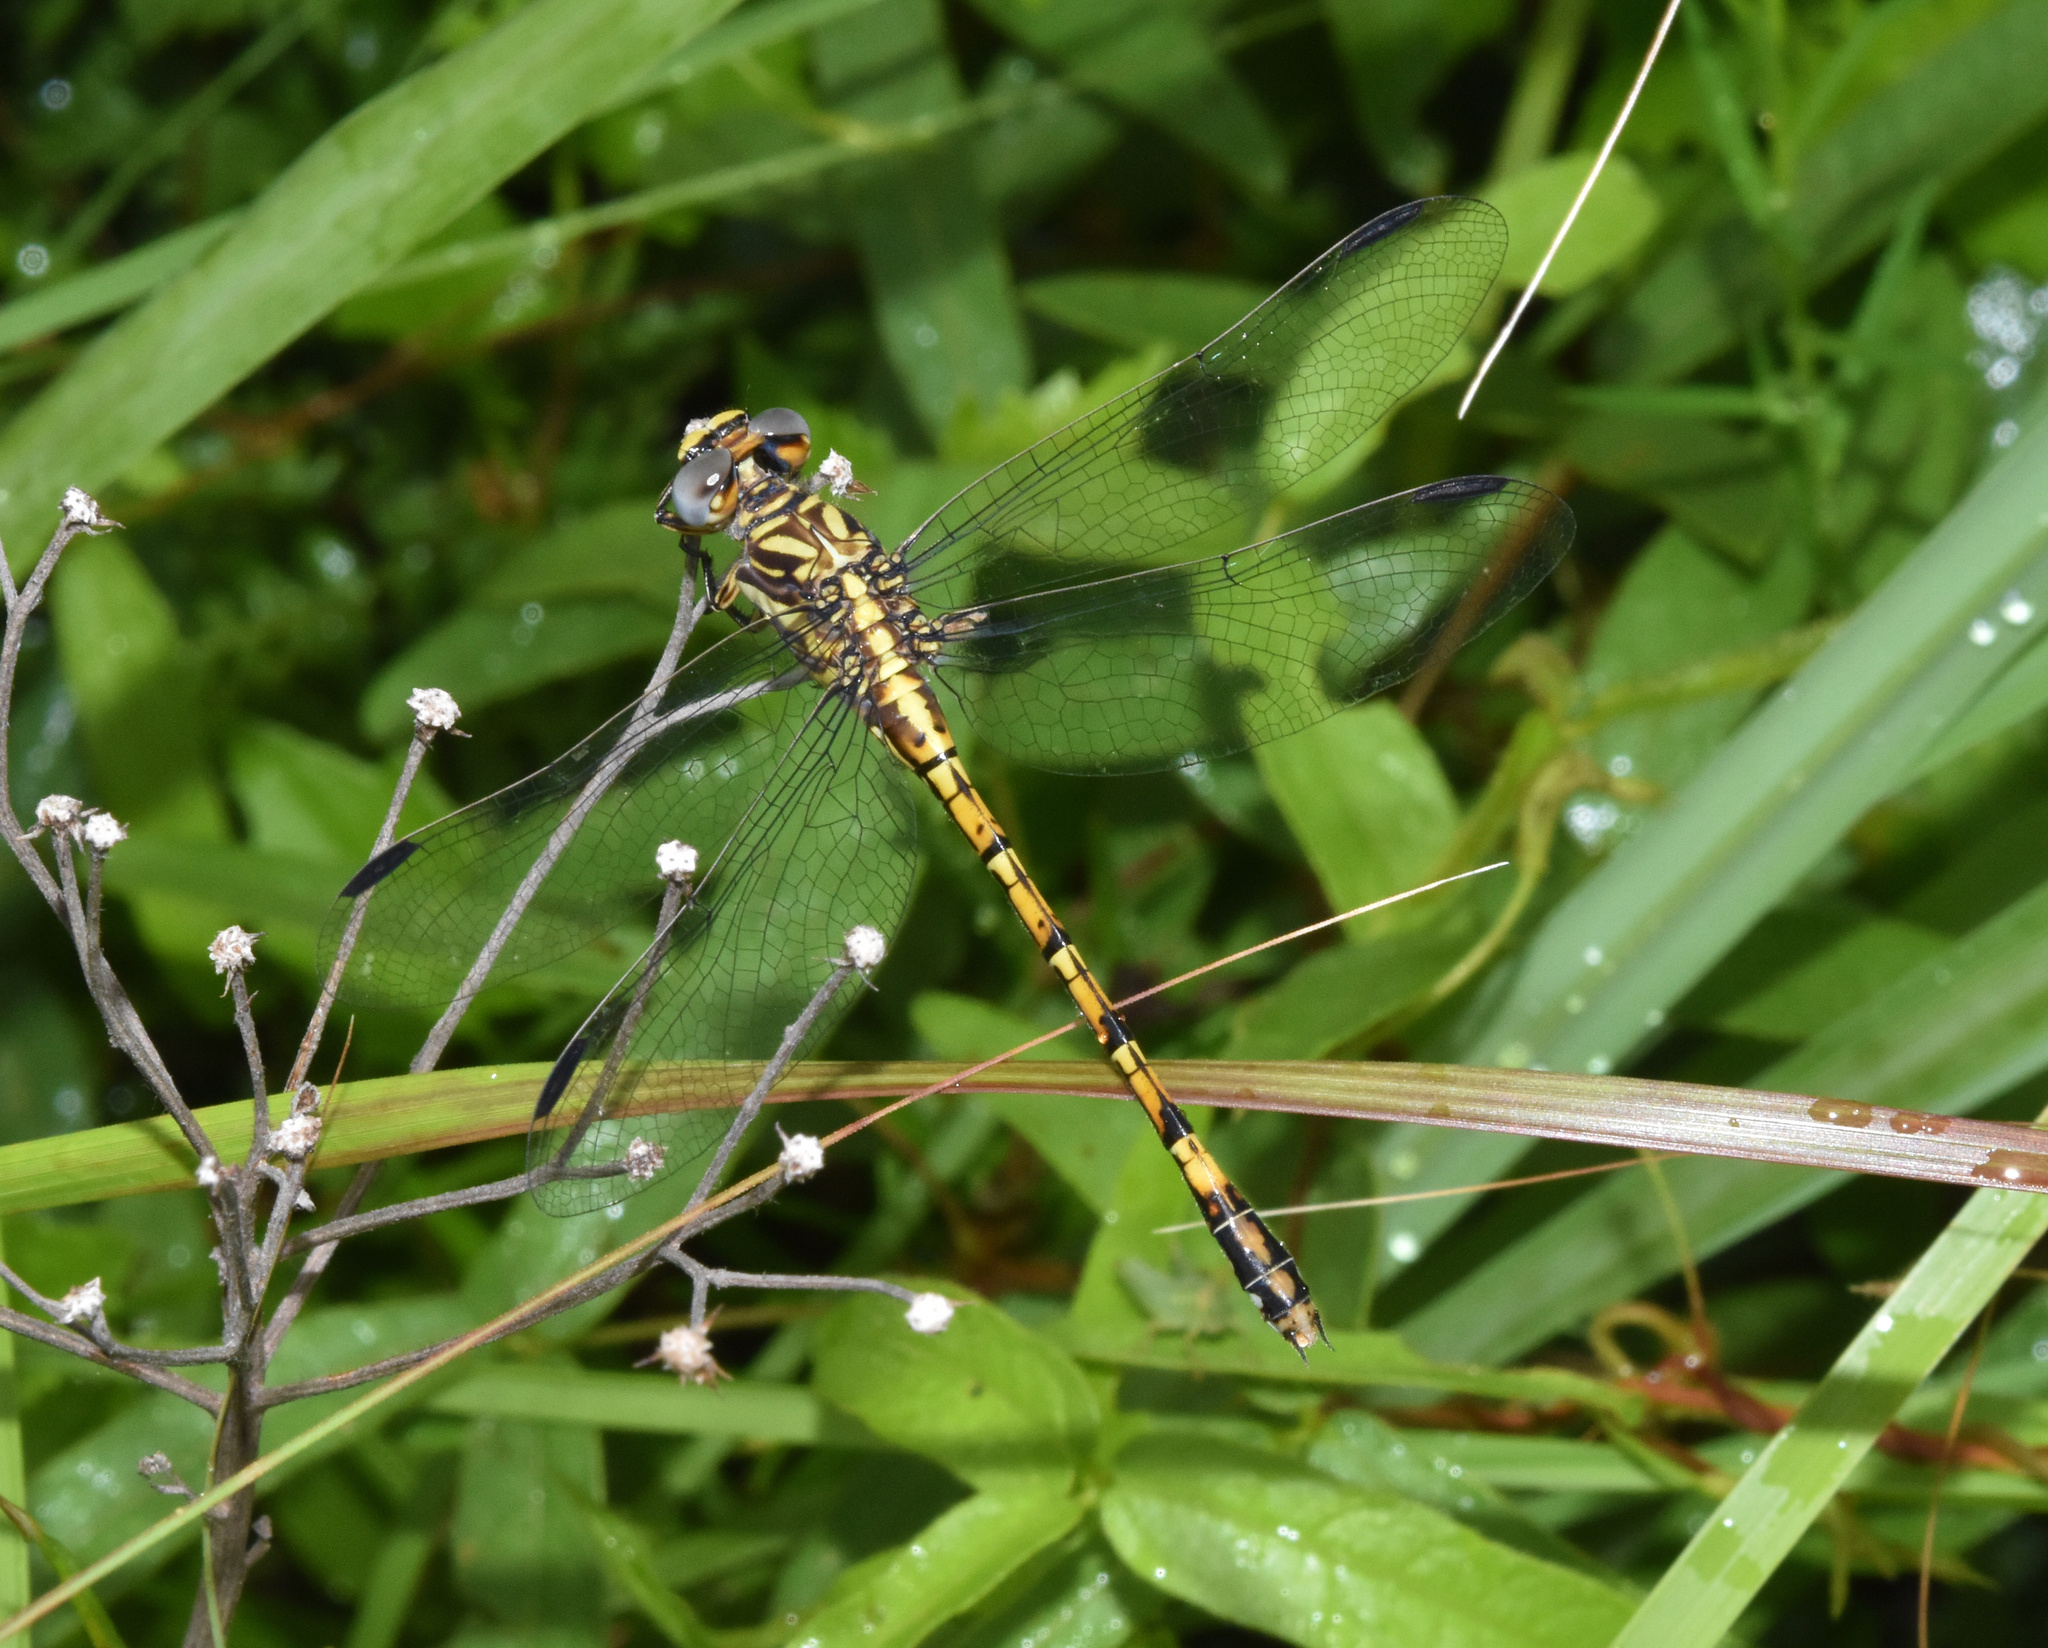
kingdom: Animalia
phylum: Arthropoda
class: Insecta
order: Odonata
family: Gomphidae
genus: Paragomphus
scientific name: Paragomphus cognatus
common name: Boulder hooktail
